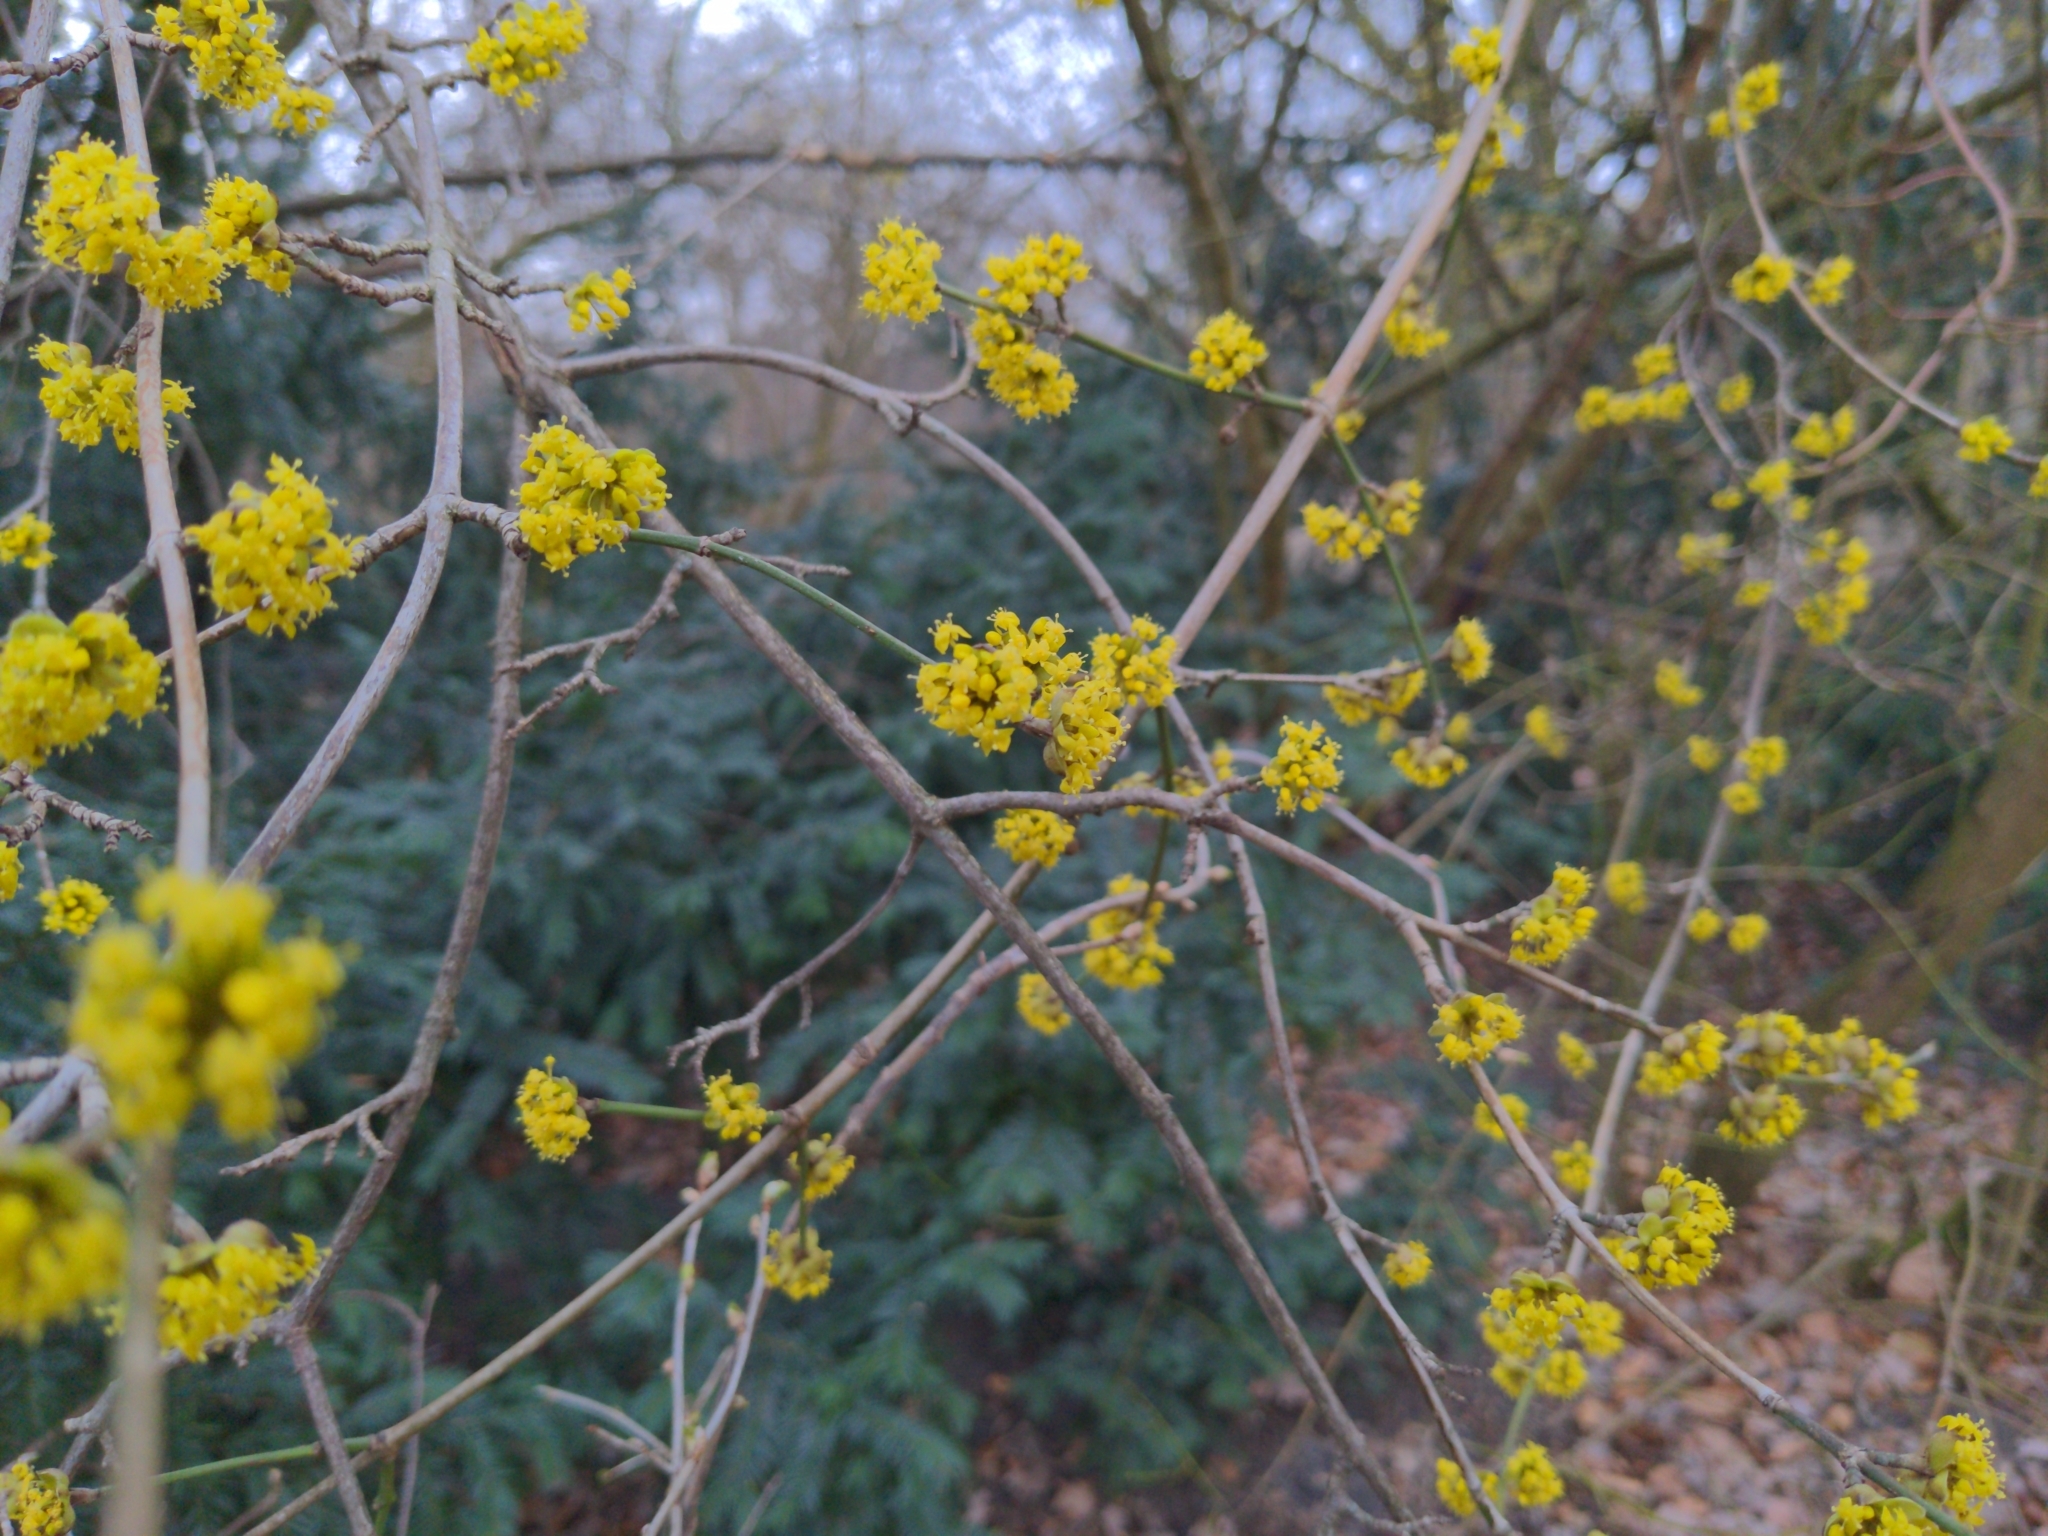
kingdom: Plantae
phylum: Tracheophyta
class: Magnoliopsida
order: Cornales
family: Cornaceae
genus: Cornus
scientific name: Cornus mas
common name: Cornelian-cherry
